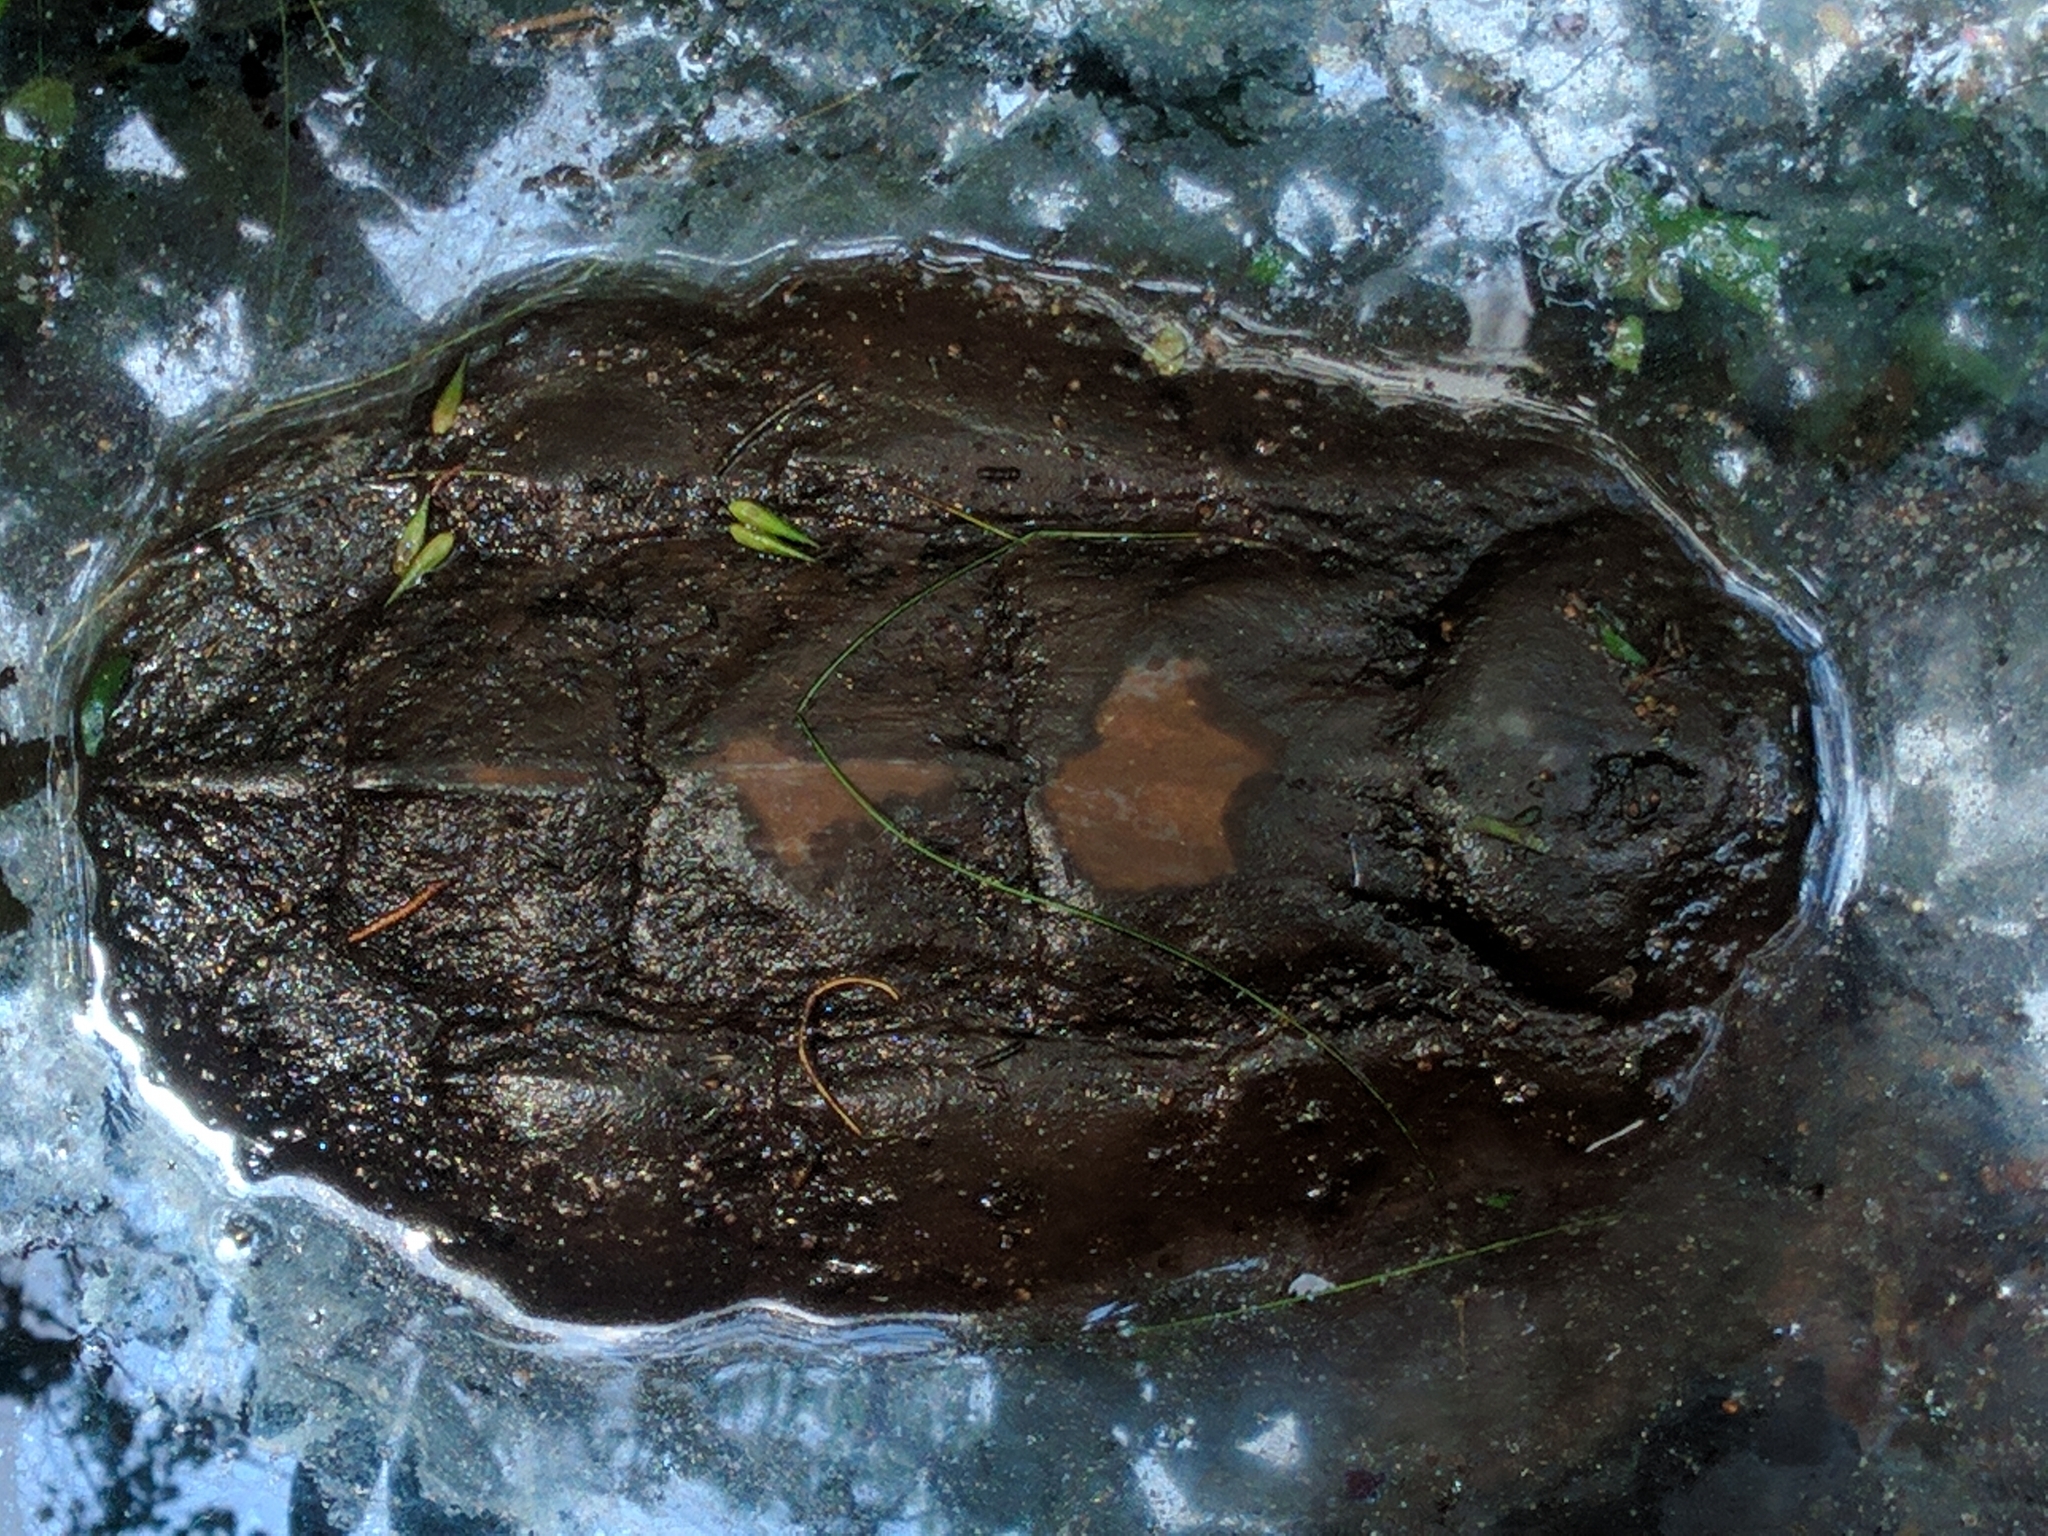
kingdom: Animalia
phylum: Chordata
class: Testudines
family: Chelydridae
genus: Chelydra
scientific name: Chelydra serpentina
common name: Common snapping turtle
